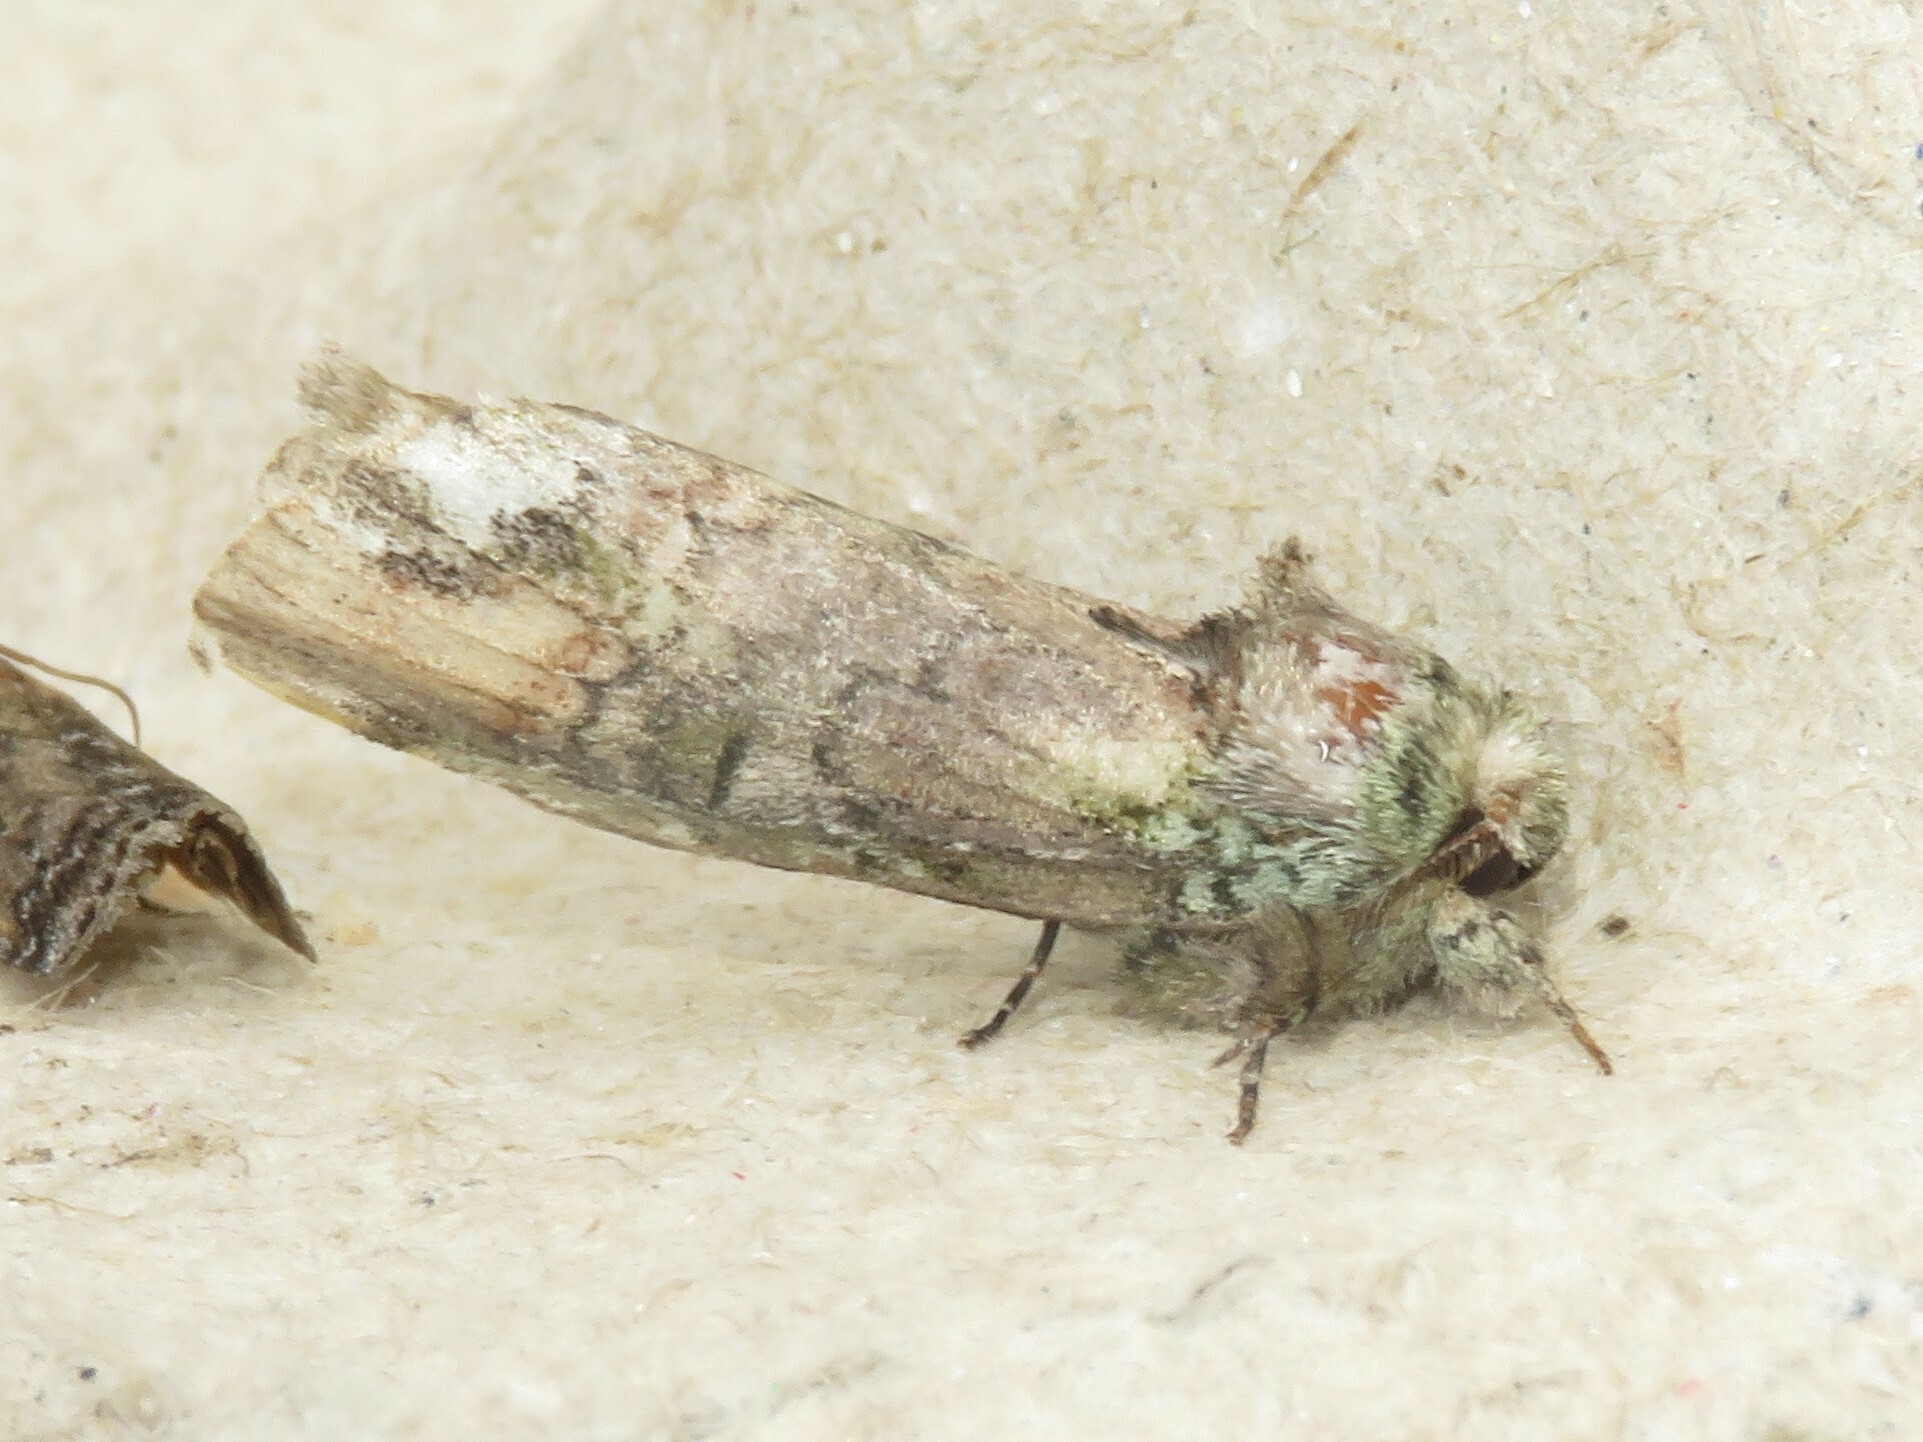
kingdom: Animalia
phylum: Arthropoda
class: Insecta
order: Lepidoptera
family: Notodontidae
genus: Schizura
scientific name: Schizura
